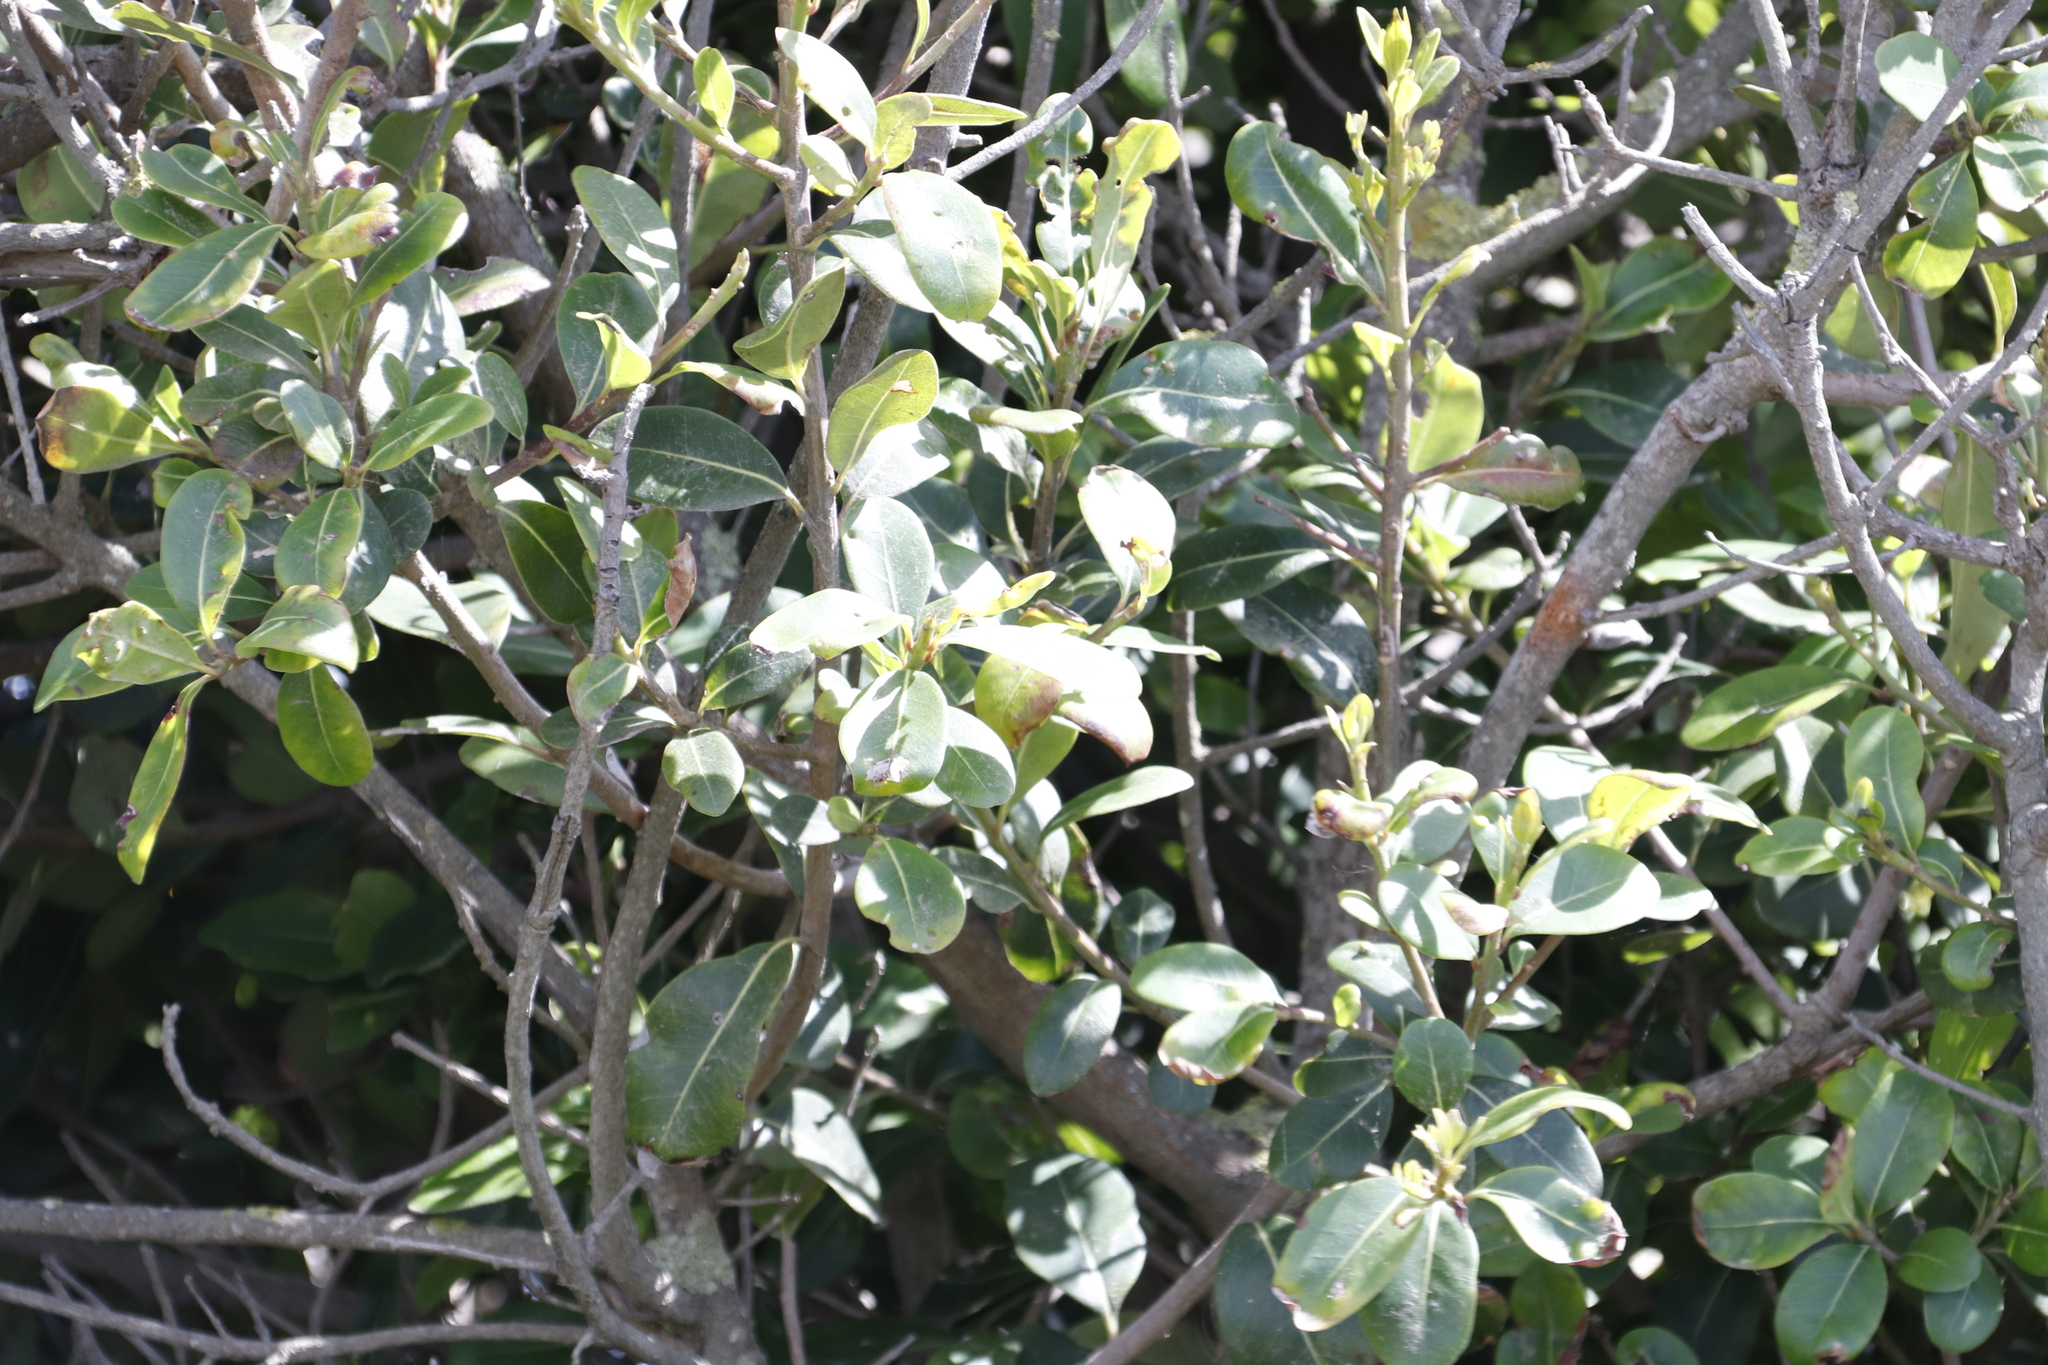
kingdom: Plantae
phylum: Tracheophyta
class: Magnoliopsida
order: Ericales
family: Sapotaceae
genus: Sideroxylon
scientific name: Sideroxylon inerme
